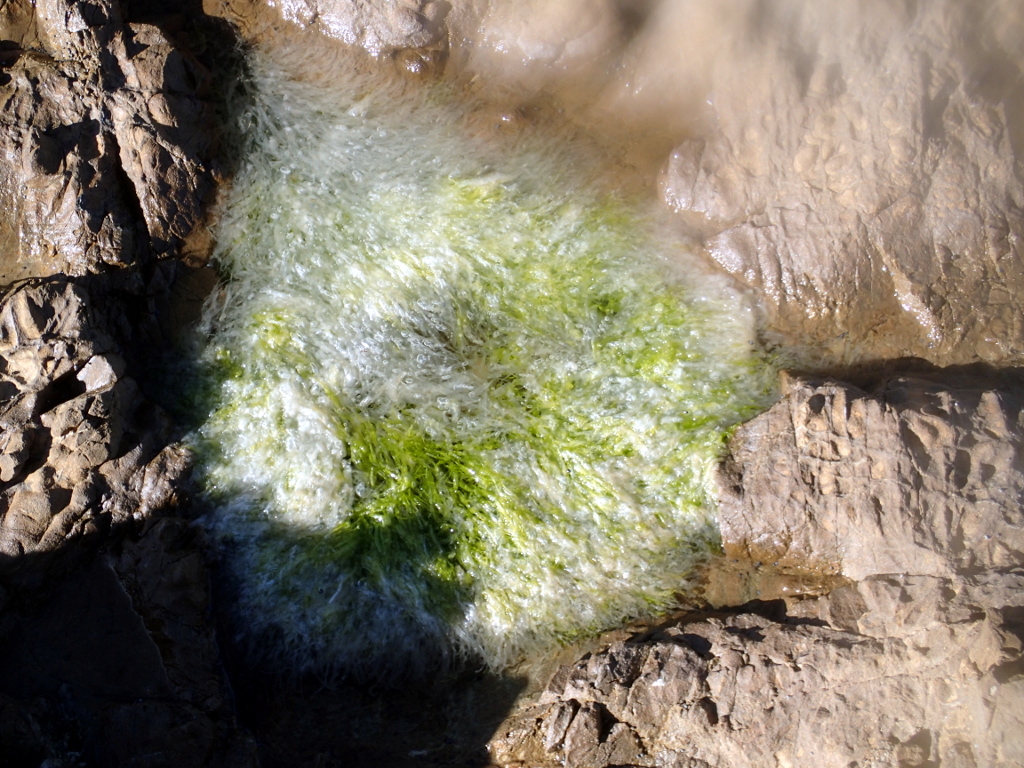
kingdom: Plantae
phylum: Chlorophyta
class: Ulvophyceae
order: Ulvales
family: Ulvaceae
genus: Ulva
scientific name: Ulva intestinalis
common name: Gut weed
